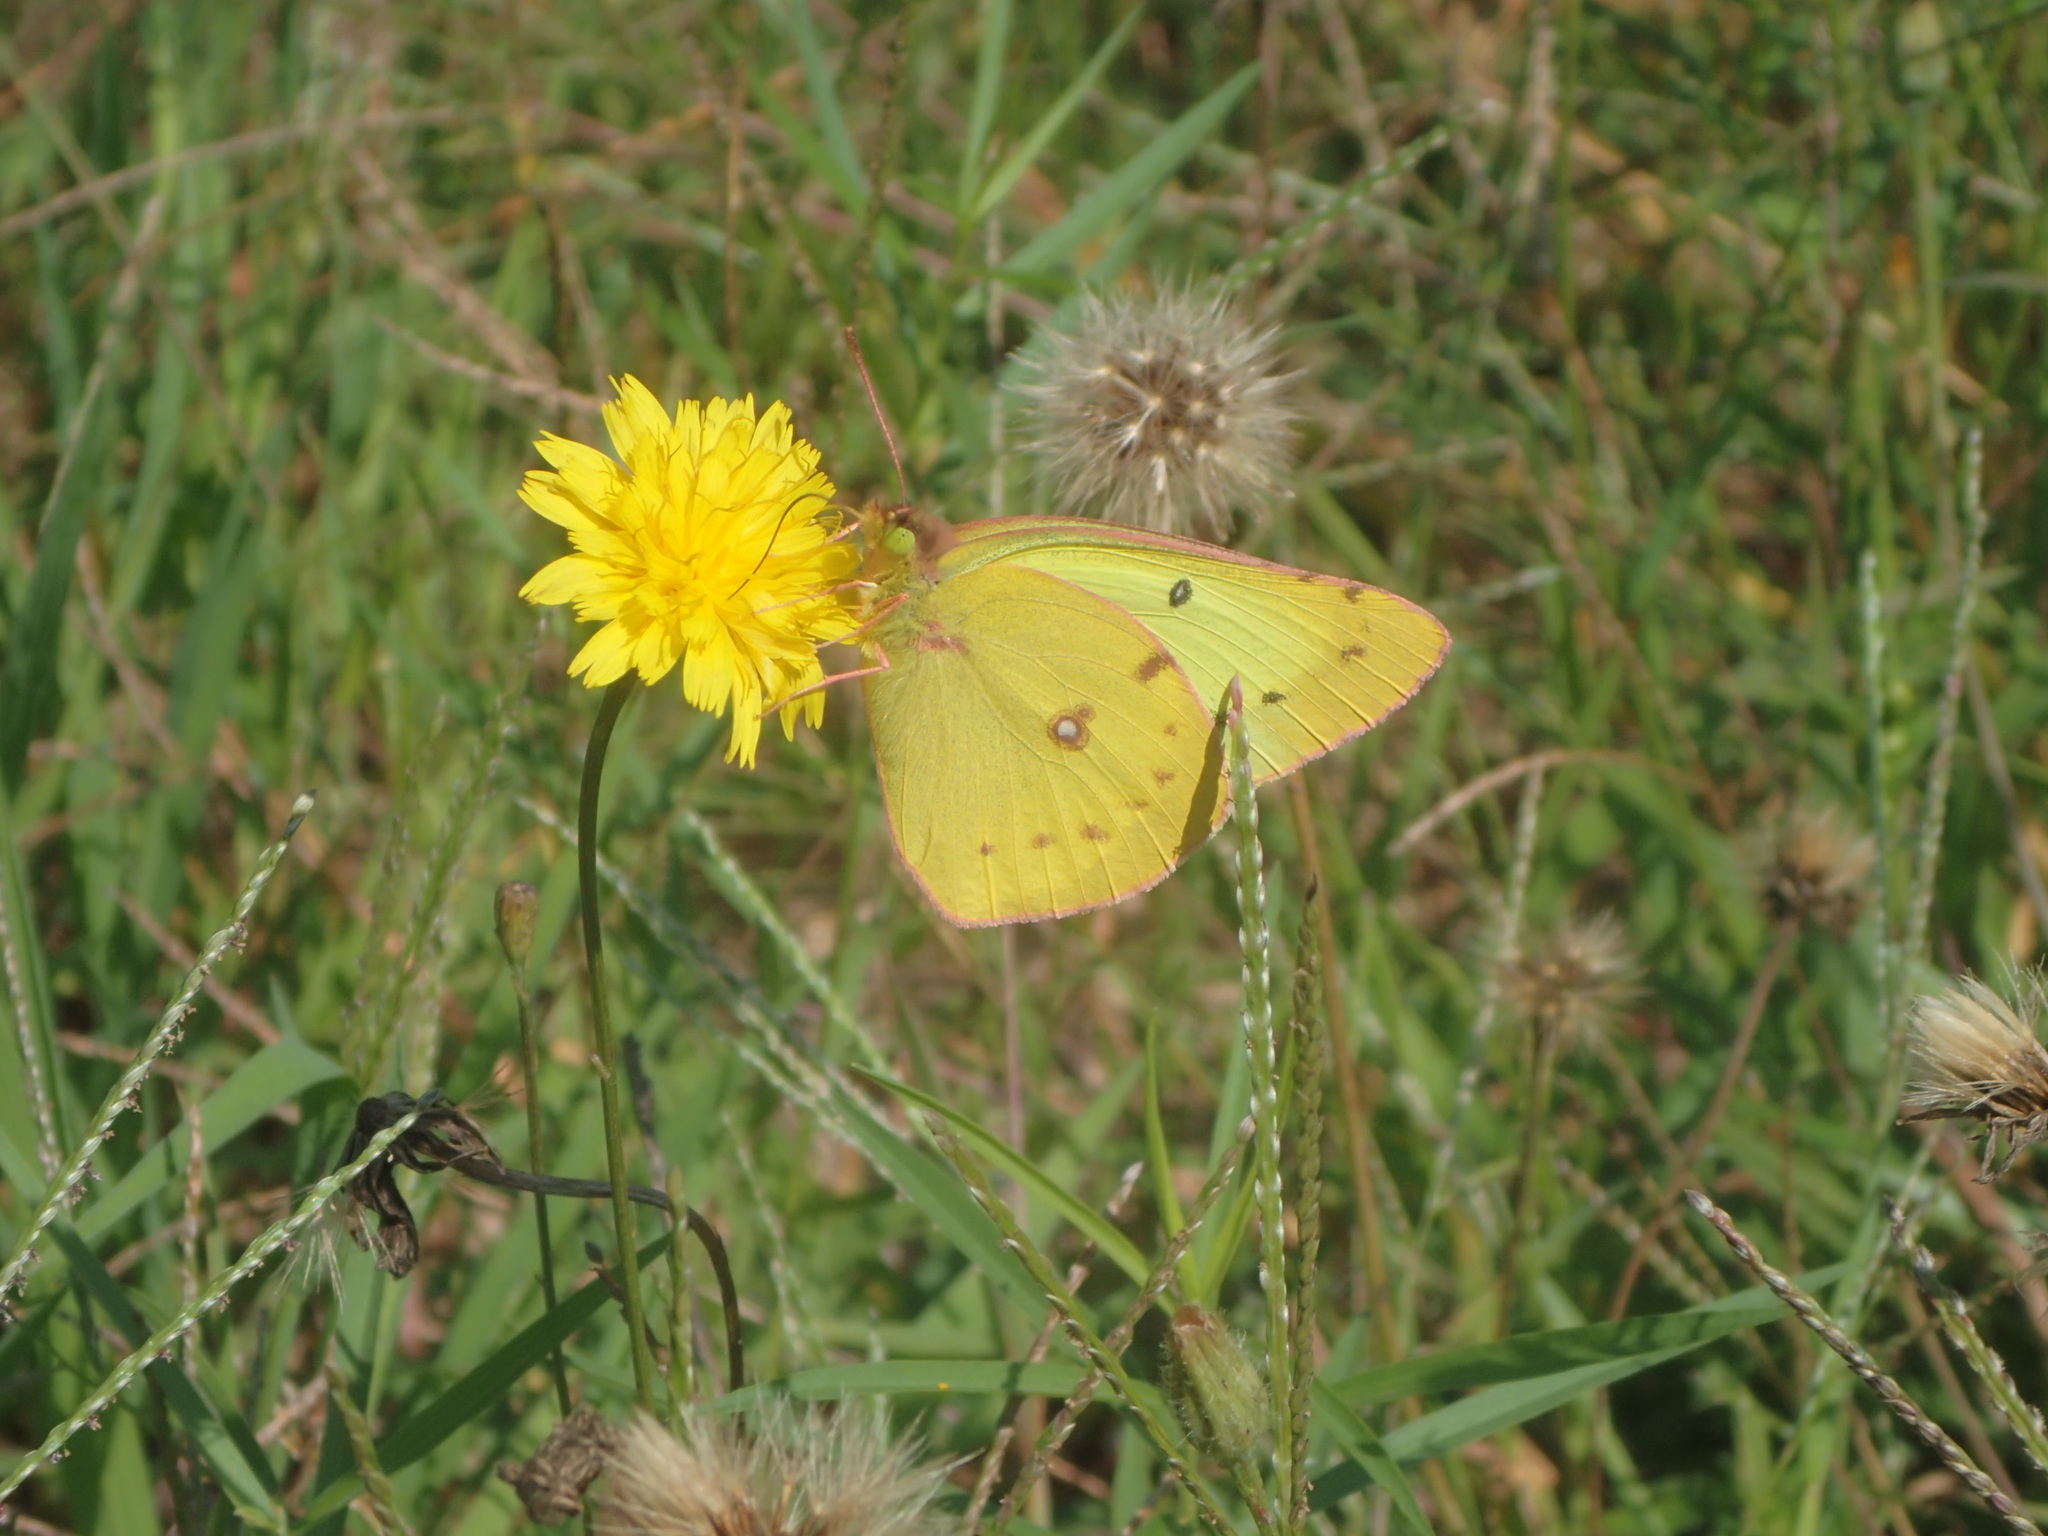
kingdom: Animalia
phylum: Arthropoda
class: Insecta
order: Lepidoptera
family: Pieridae
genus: Colias
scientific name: Colias philodice
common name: Clouded sulphur
